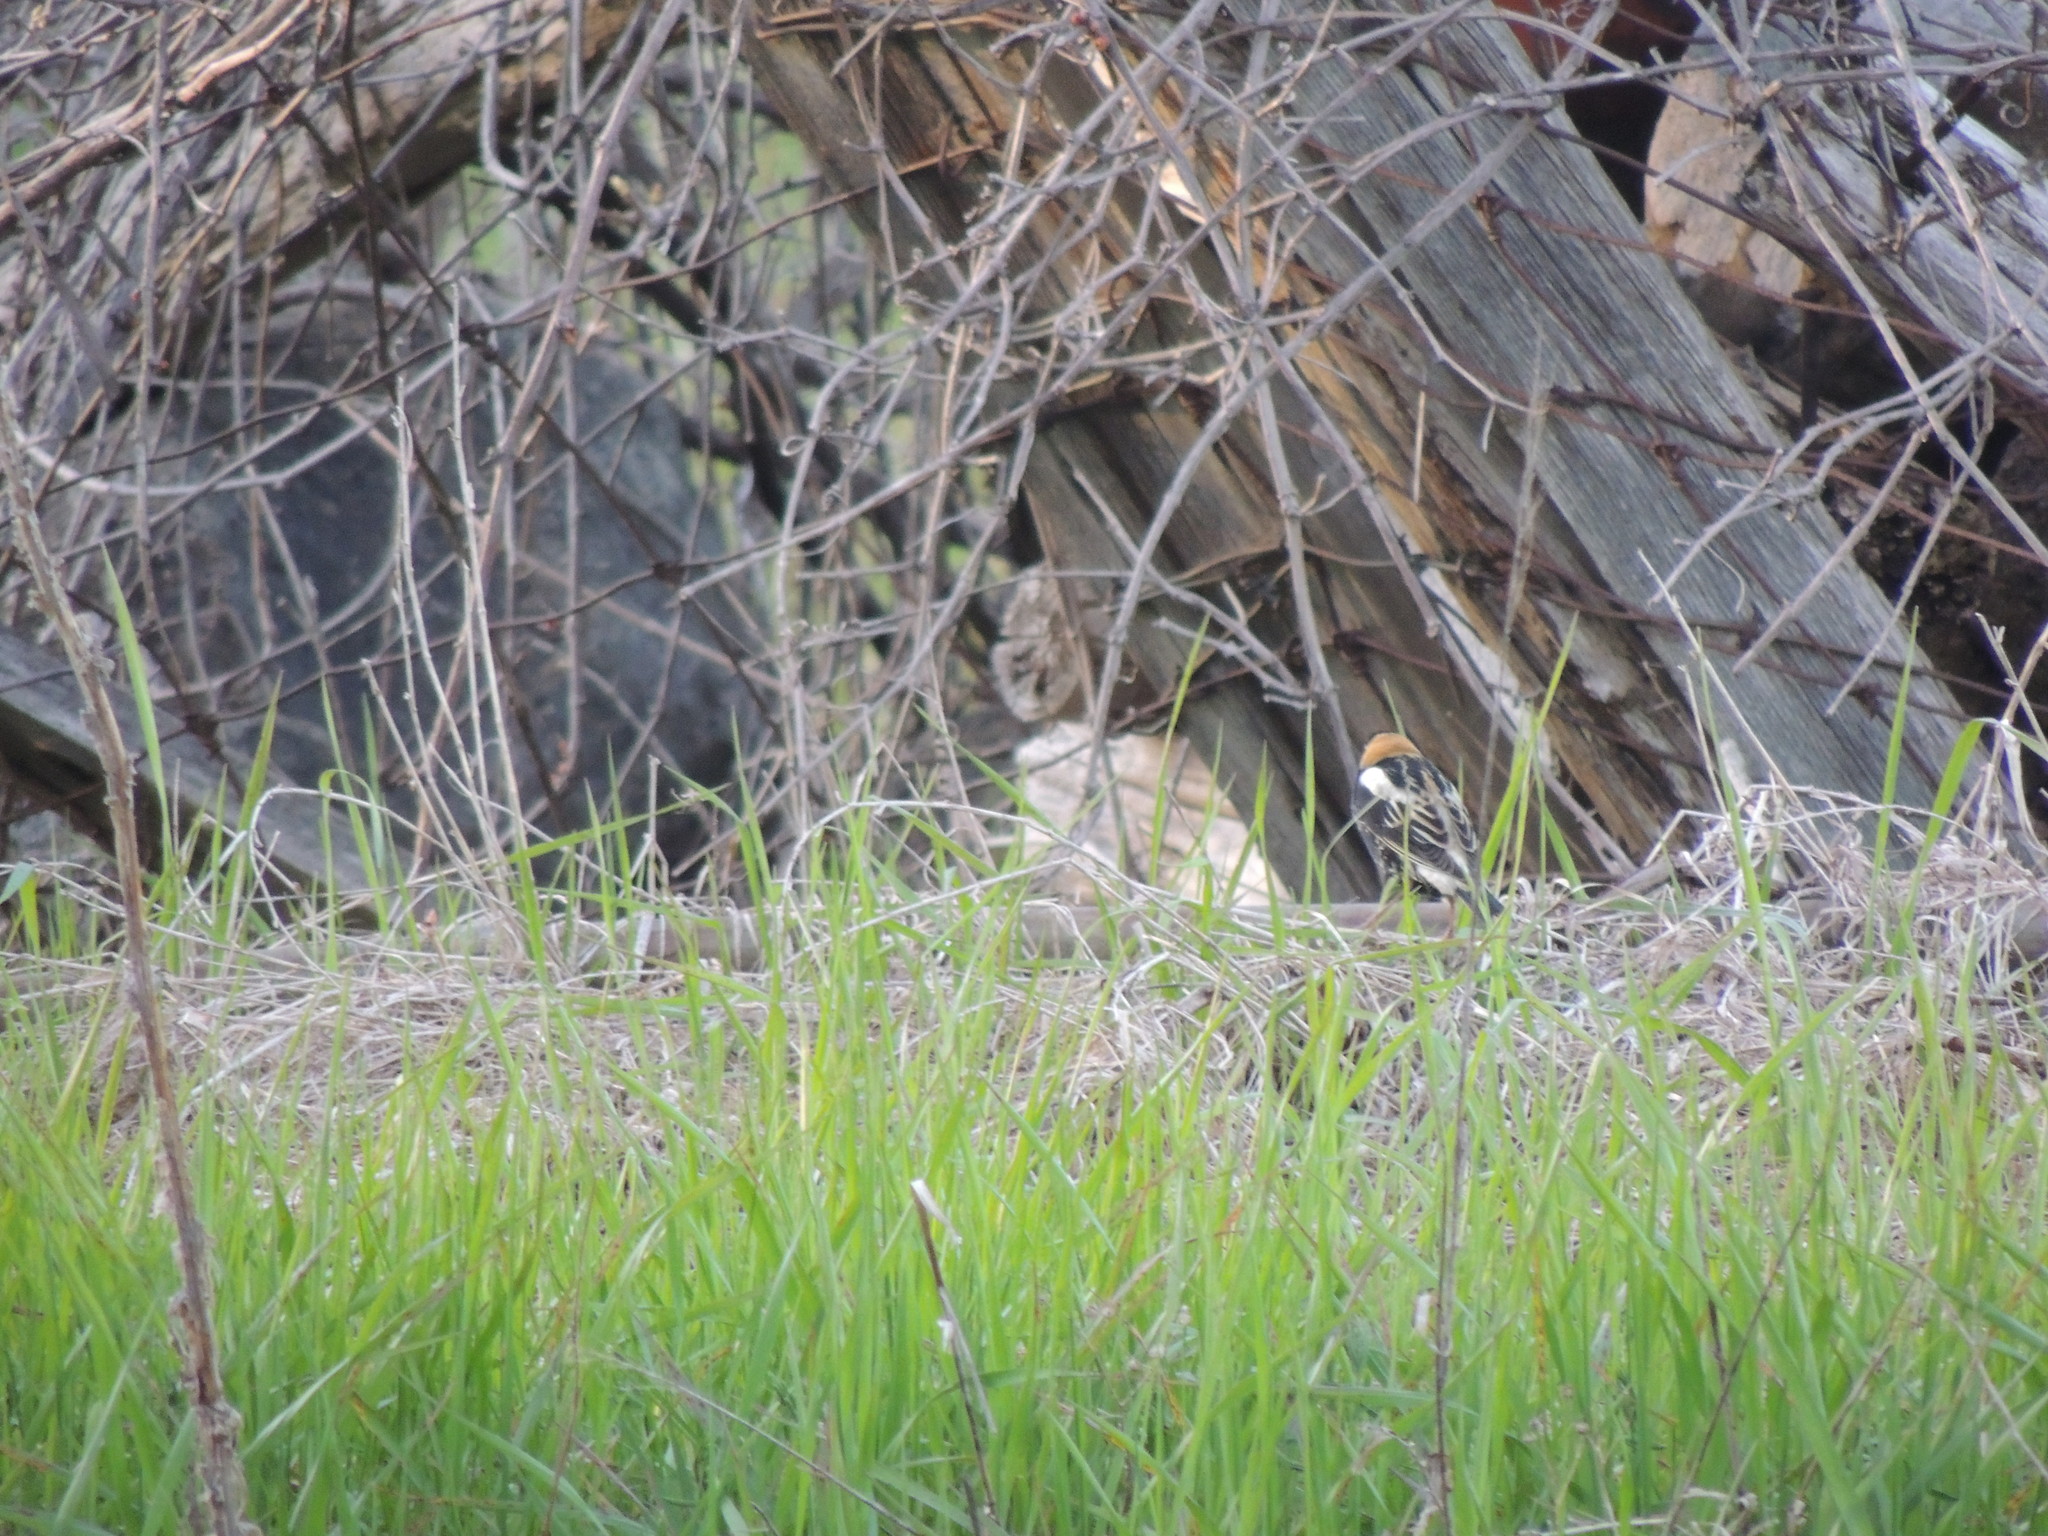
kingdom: Animalia
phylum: Chordata
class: Aves
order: Passeriformes
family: Icteridae
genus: Dolichonyx
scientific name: Dolichonyx oryzivorus
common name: Bobolink
